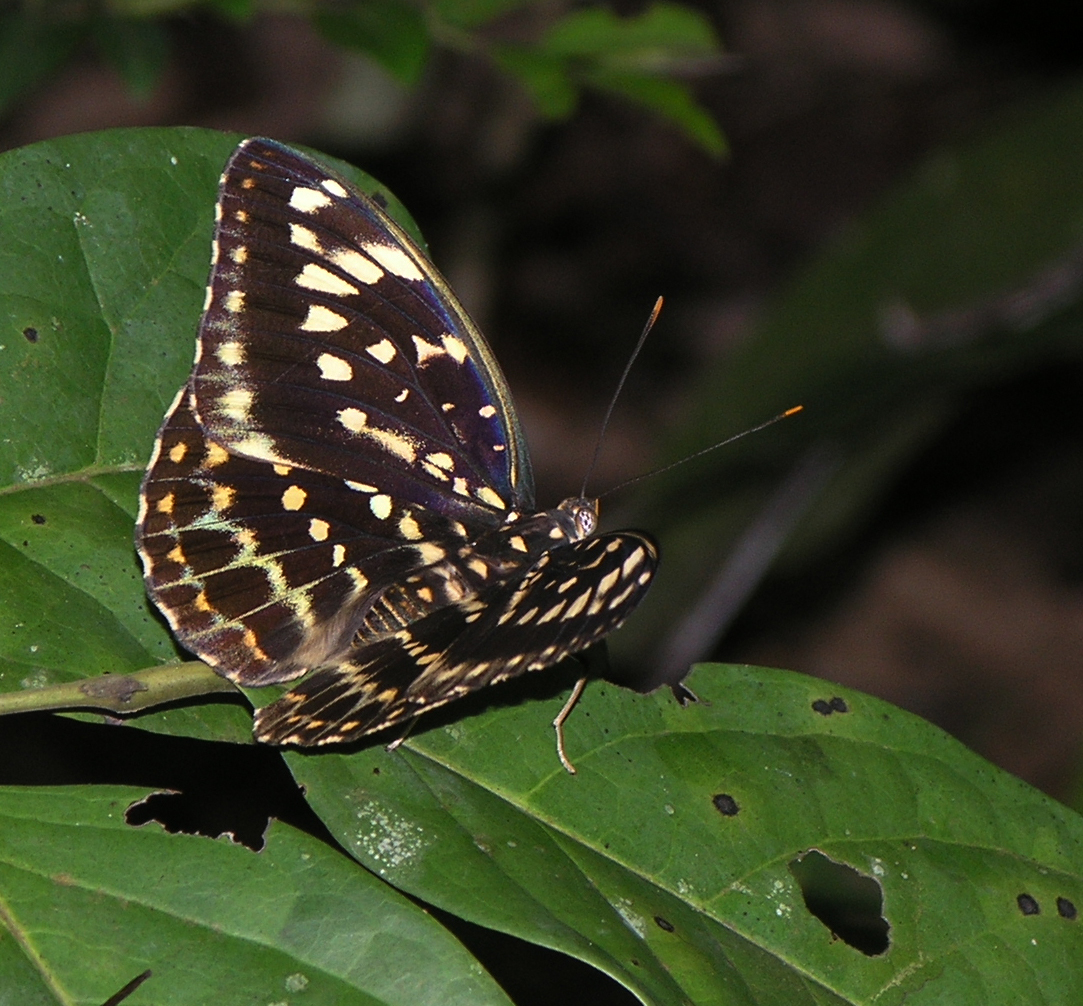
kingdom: Animalia
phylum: Arthropoda
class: Insecta
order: Lepidoptera
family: Nymphalidae
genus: Lexias
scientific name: Lexias pardalis
